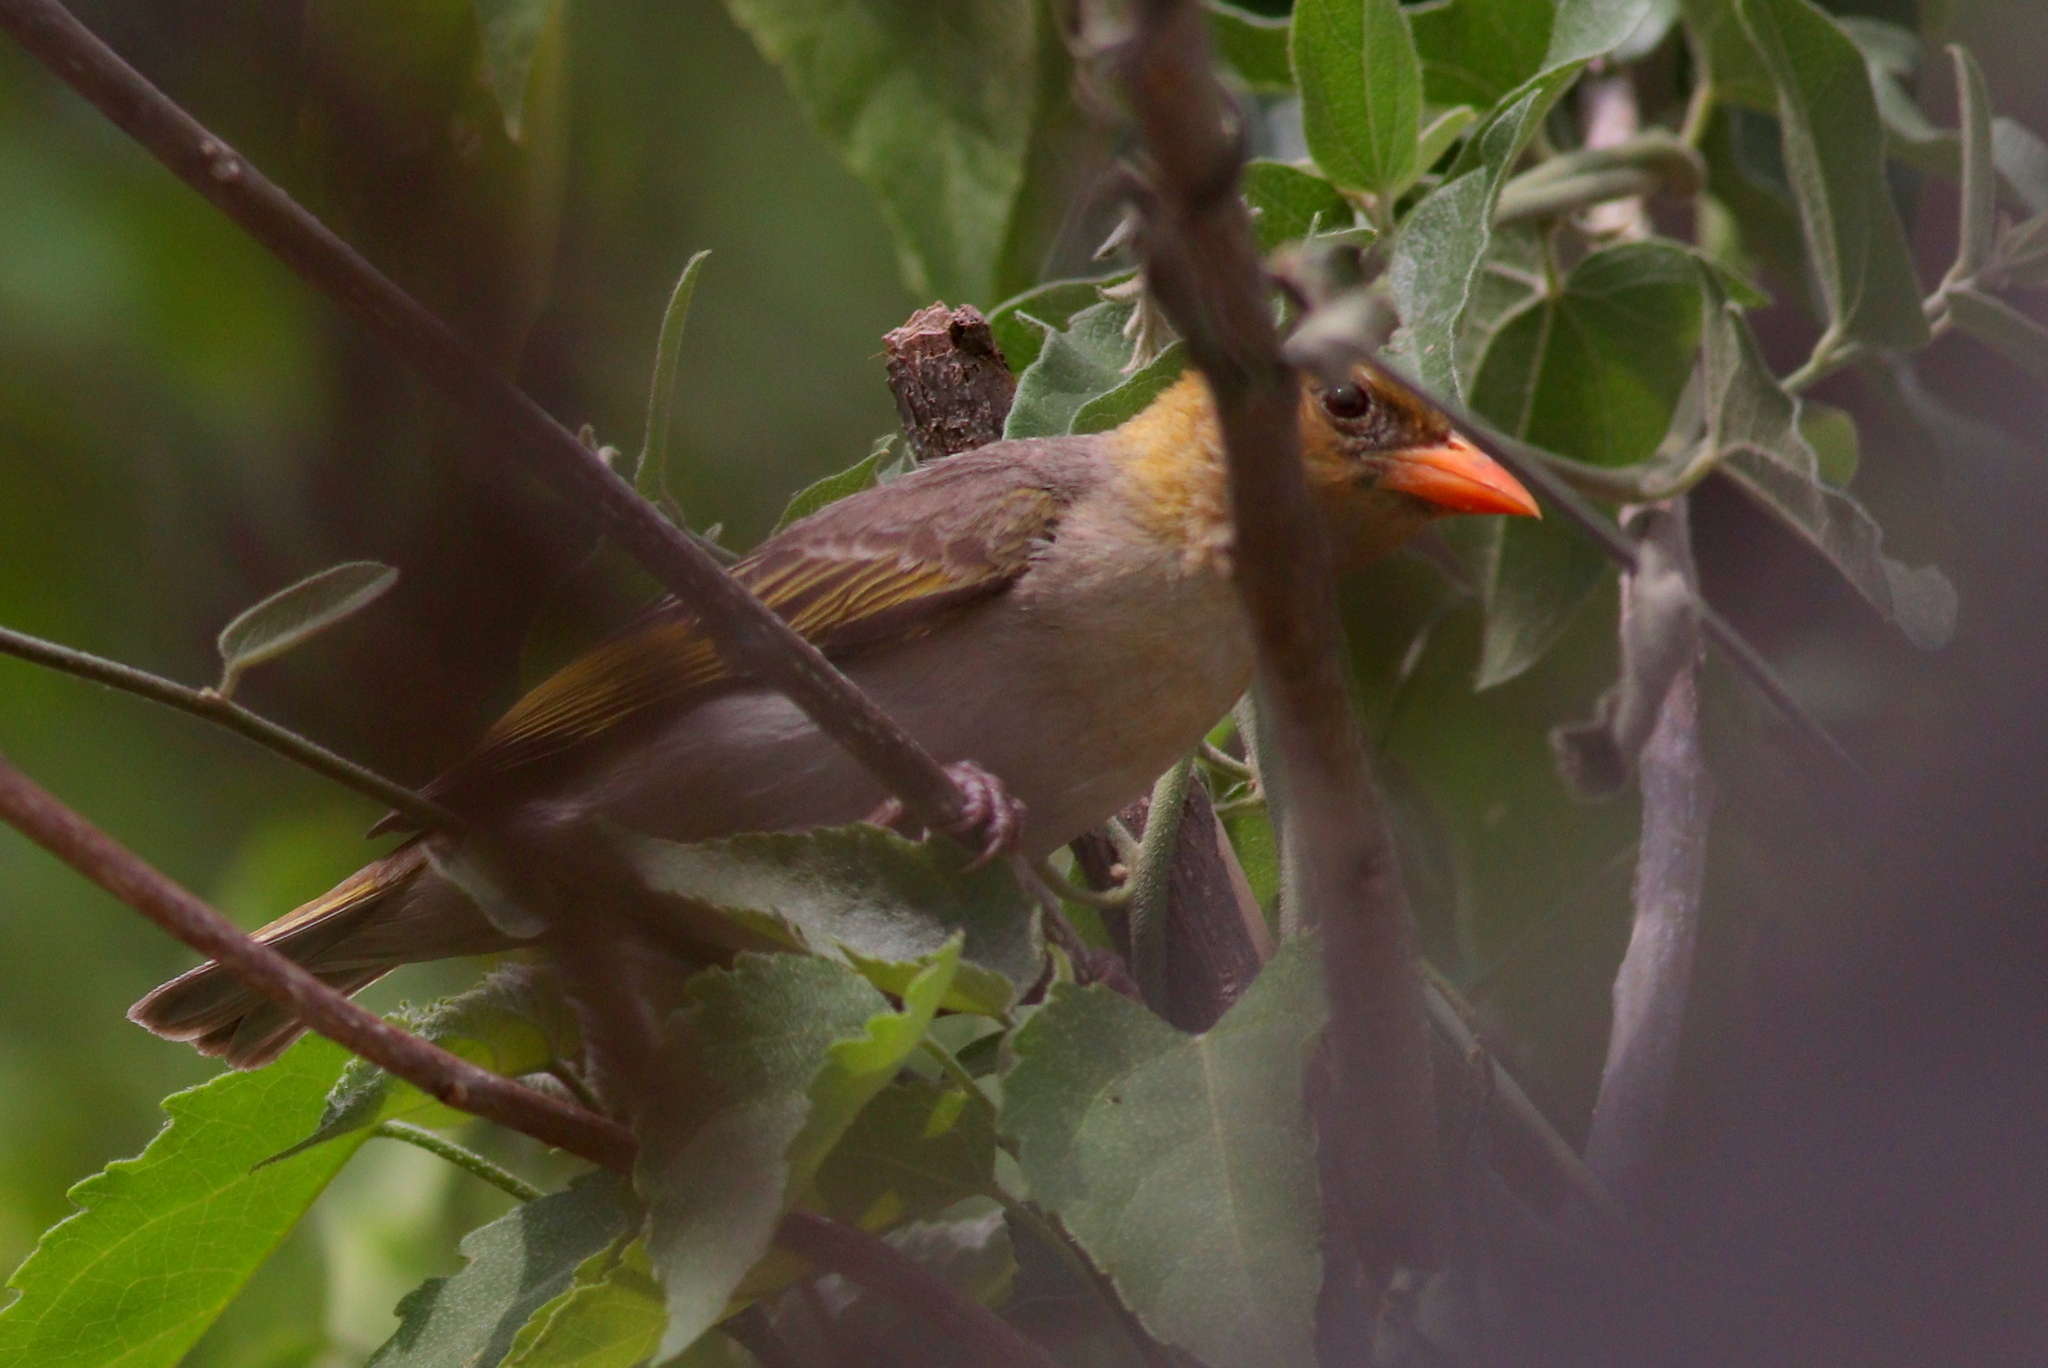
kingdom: Animalia
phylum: Chordata
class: Aves
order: Passeriformes
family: Ploceidae
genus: Anaplectes
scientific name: Anaplectes rubriceps
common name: Red-headed weaver
